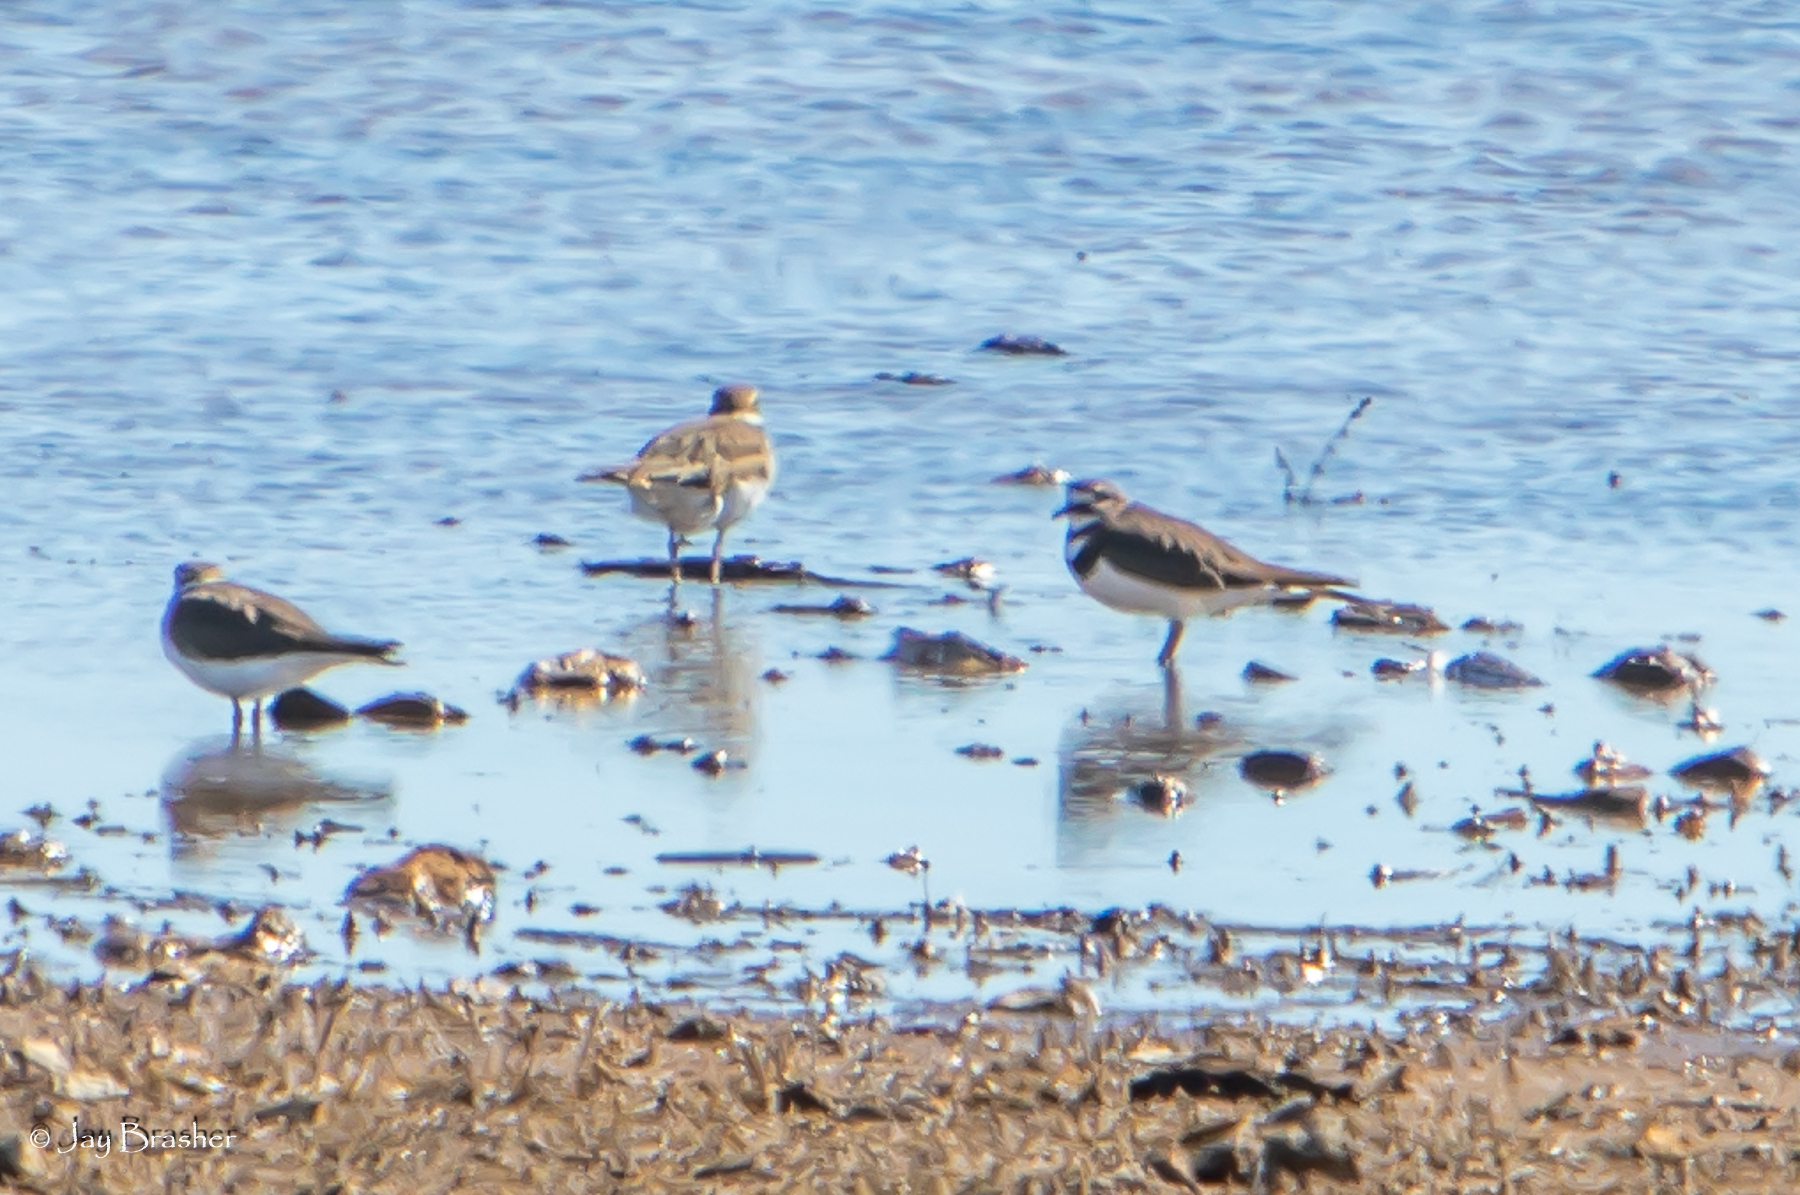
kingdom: Animalia
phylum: Chordata
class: Aves
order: Charadriiformes
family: Charadriidae
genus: Charadrius
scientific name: Charadrius vociferus
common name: Killdeer
